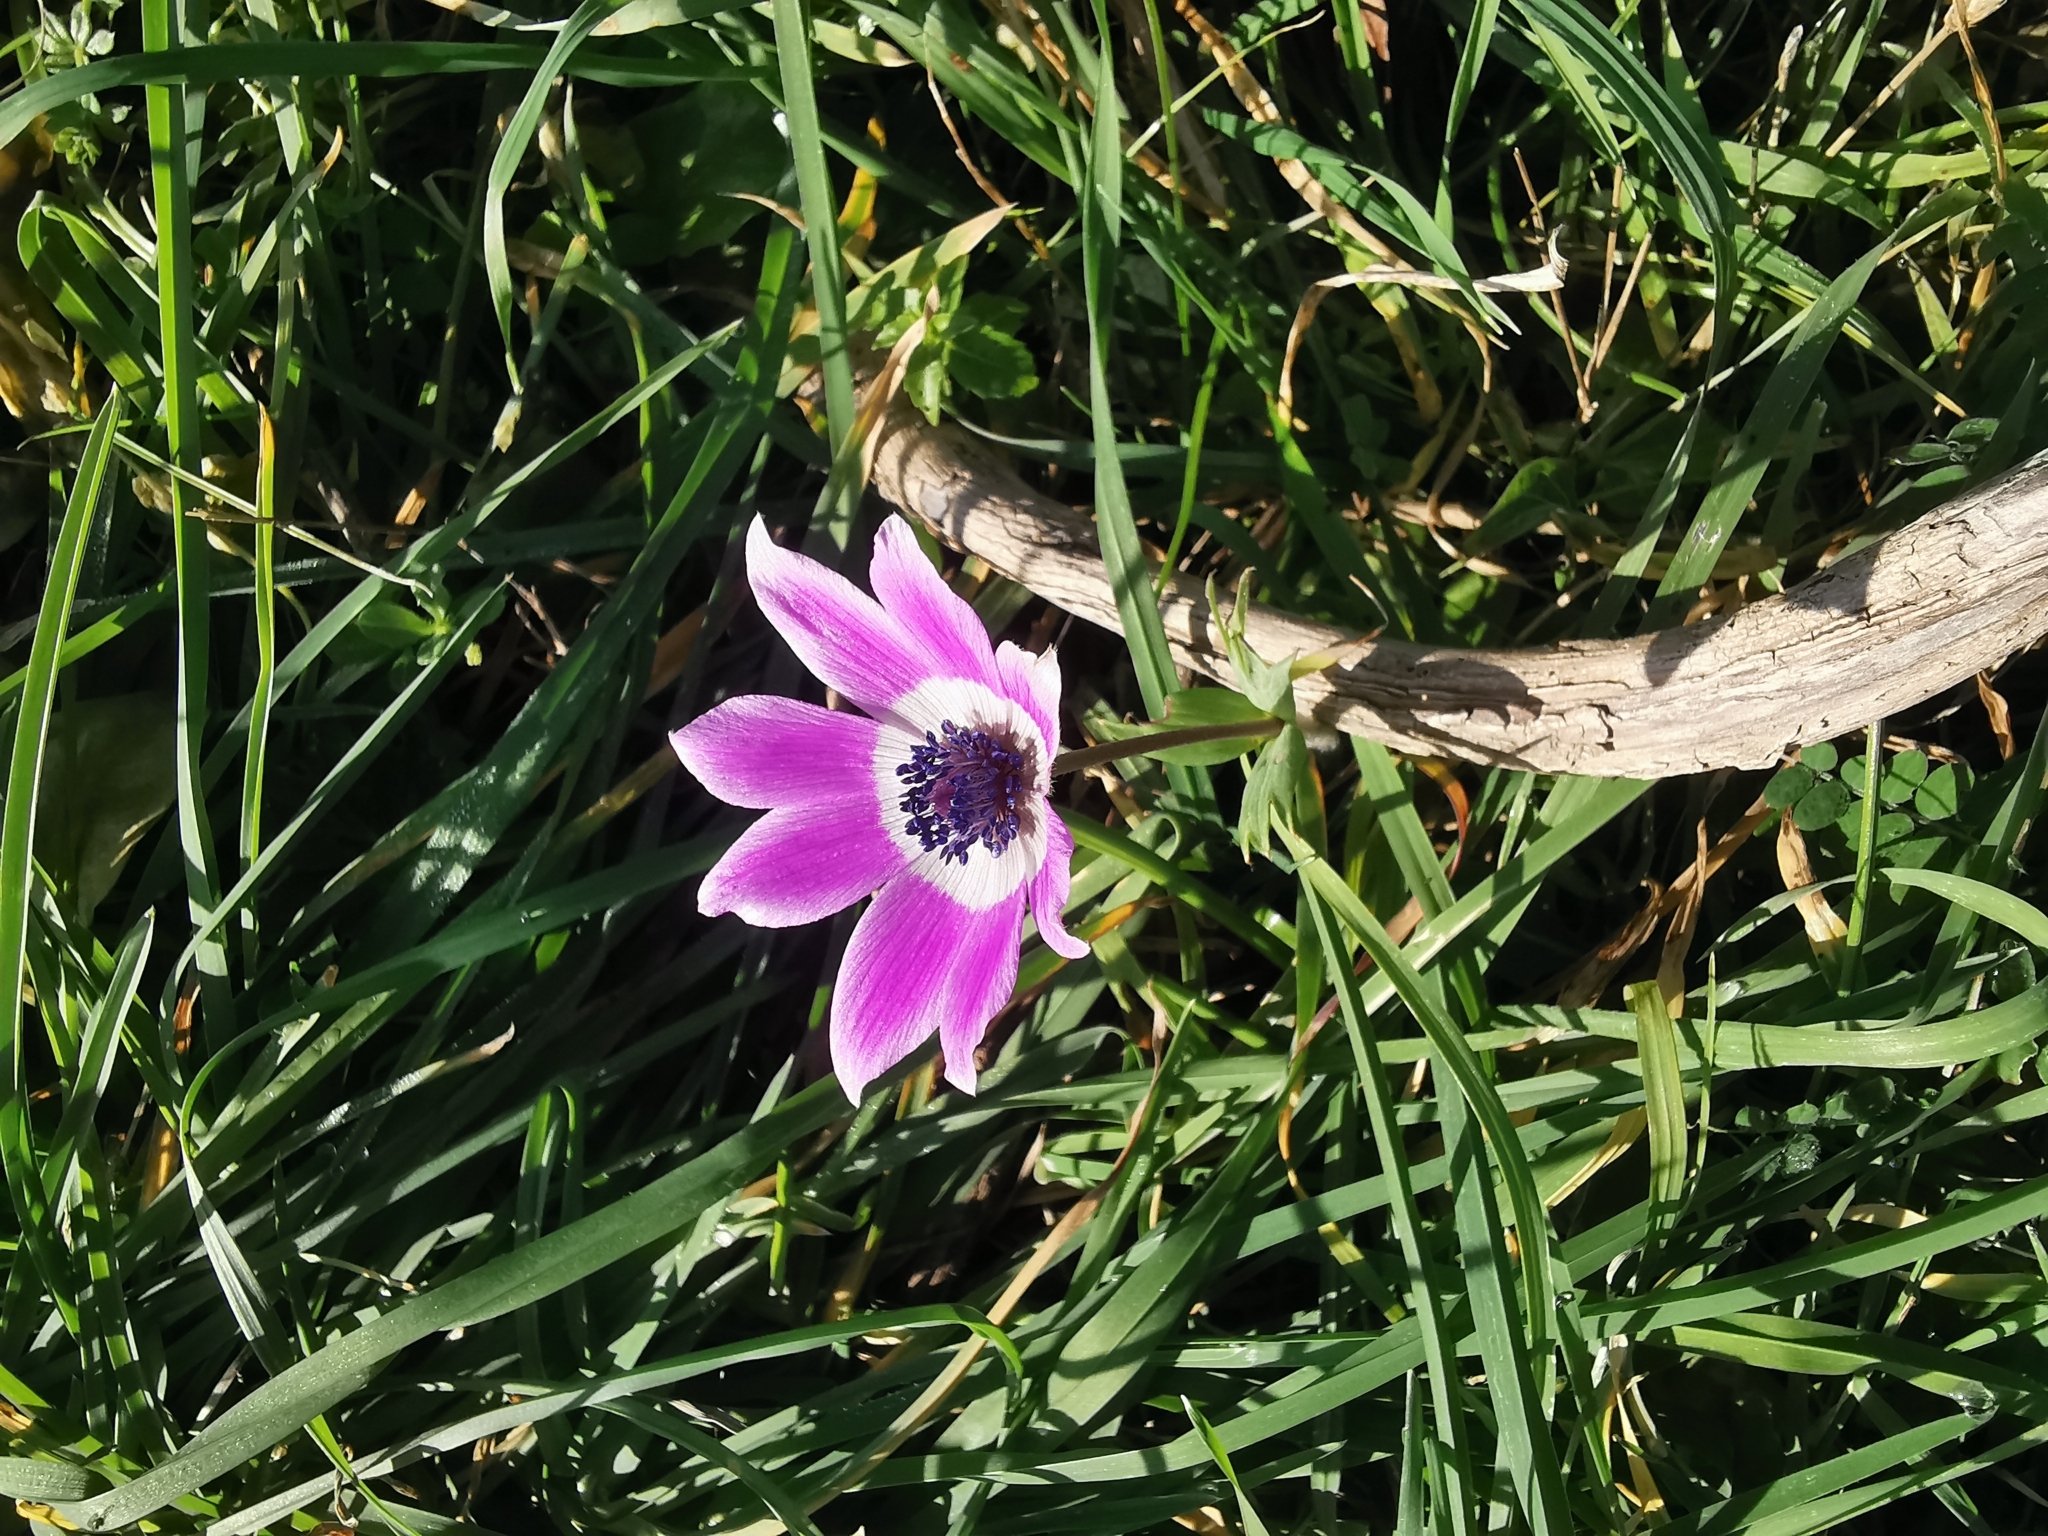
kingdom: Plantae
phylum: Tracheophyta
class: Magnoliopsida
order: Ranunculales
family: Ranunculaceae
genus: Anemone
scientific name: Anemone pavonina
